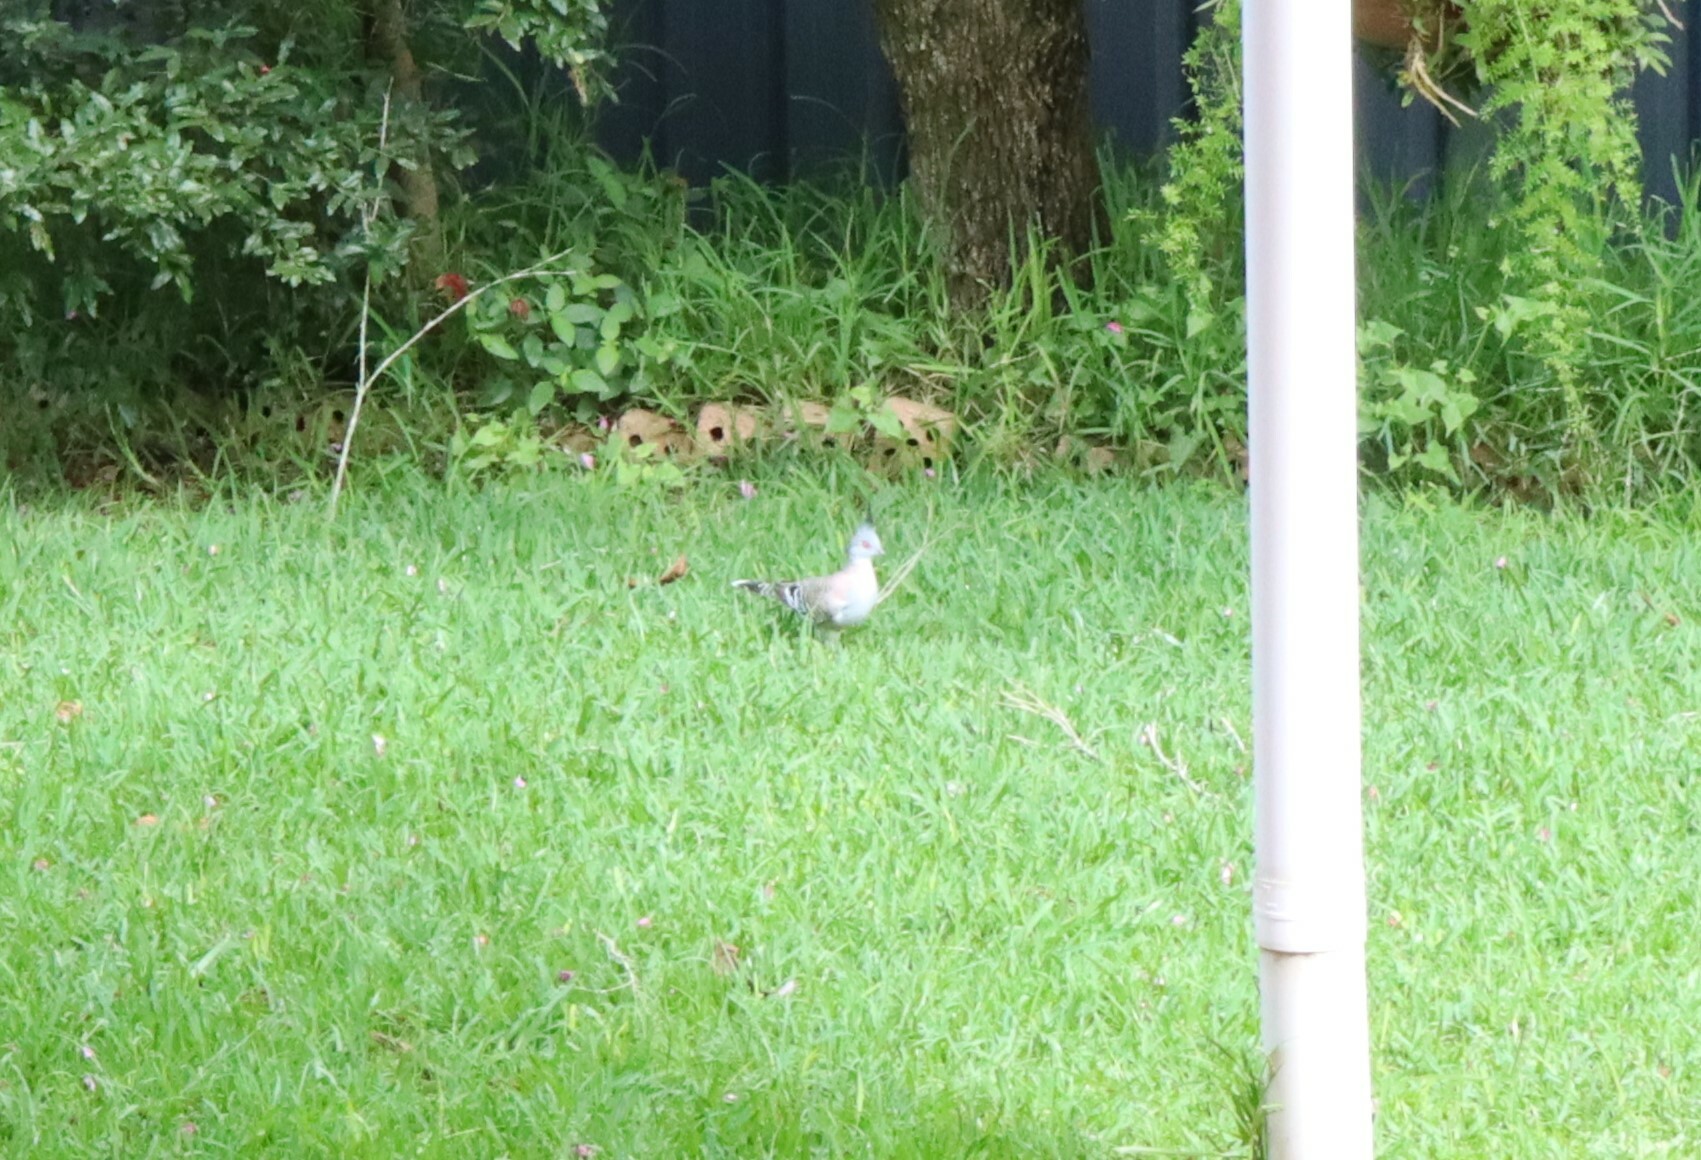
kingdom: Animalia
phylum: Chordata
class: Aves
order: Columbiformes
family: Columbidae
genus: Ocyphaps
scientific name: Ocyphaps lophotes
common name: Crested pigeon
